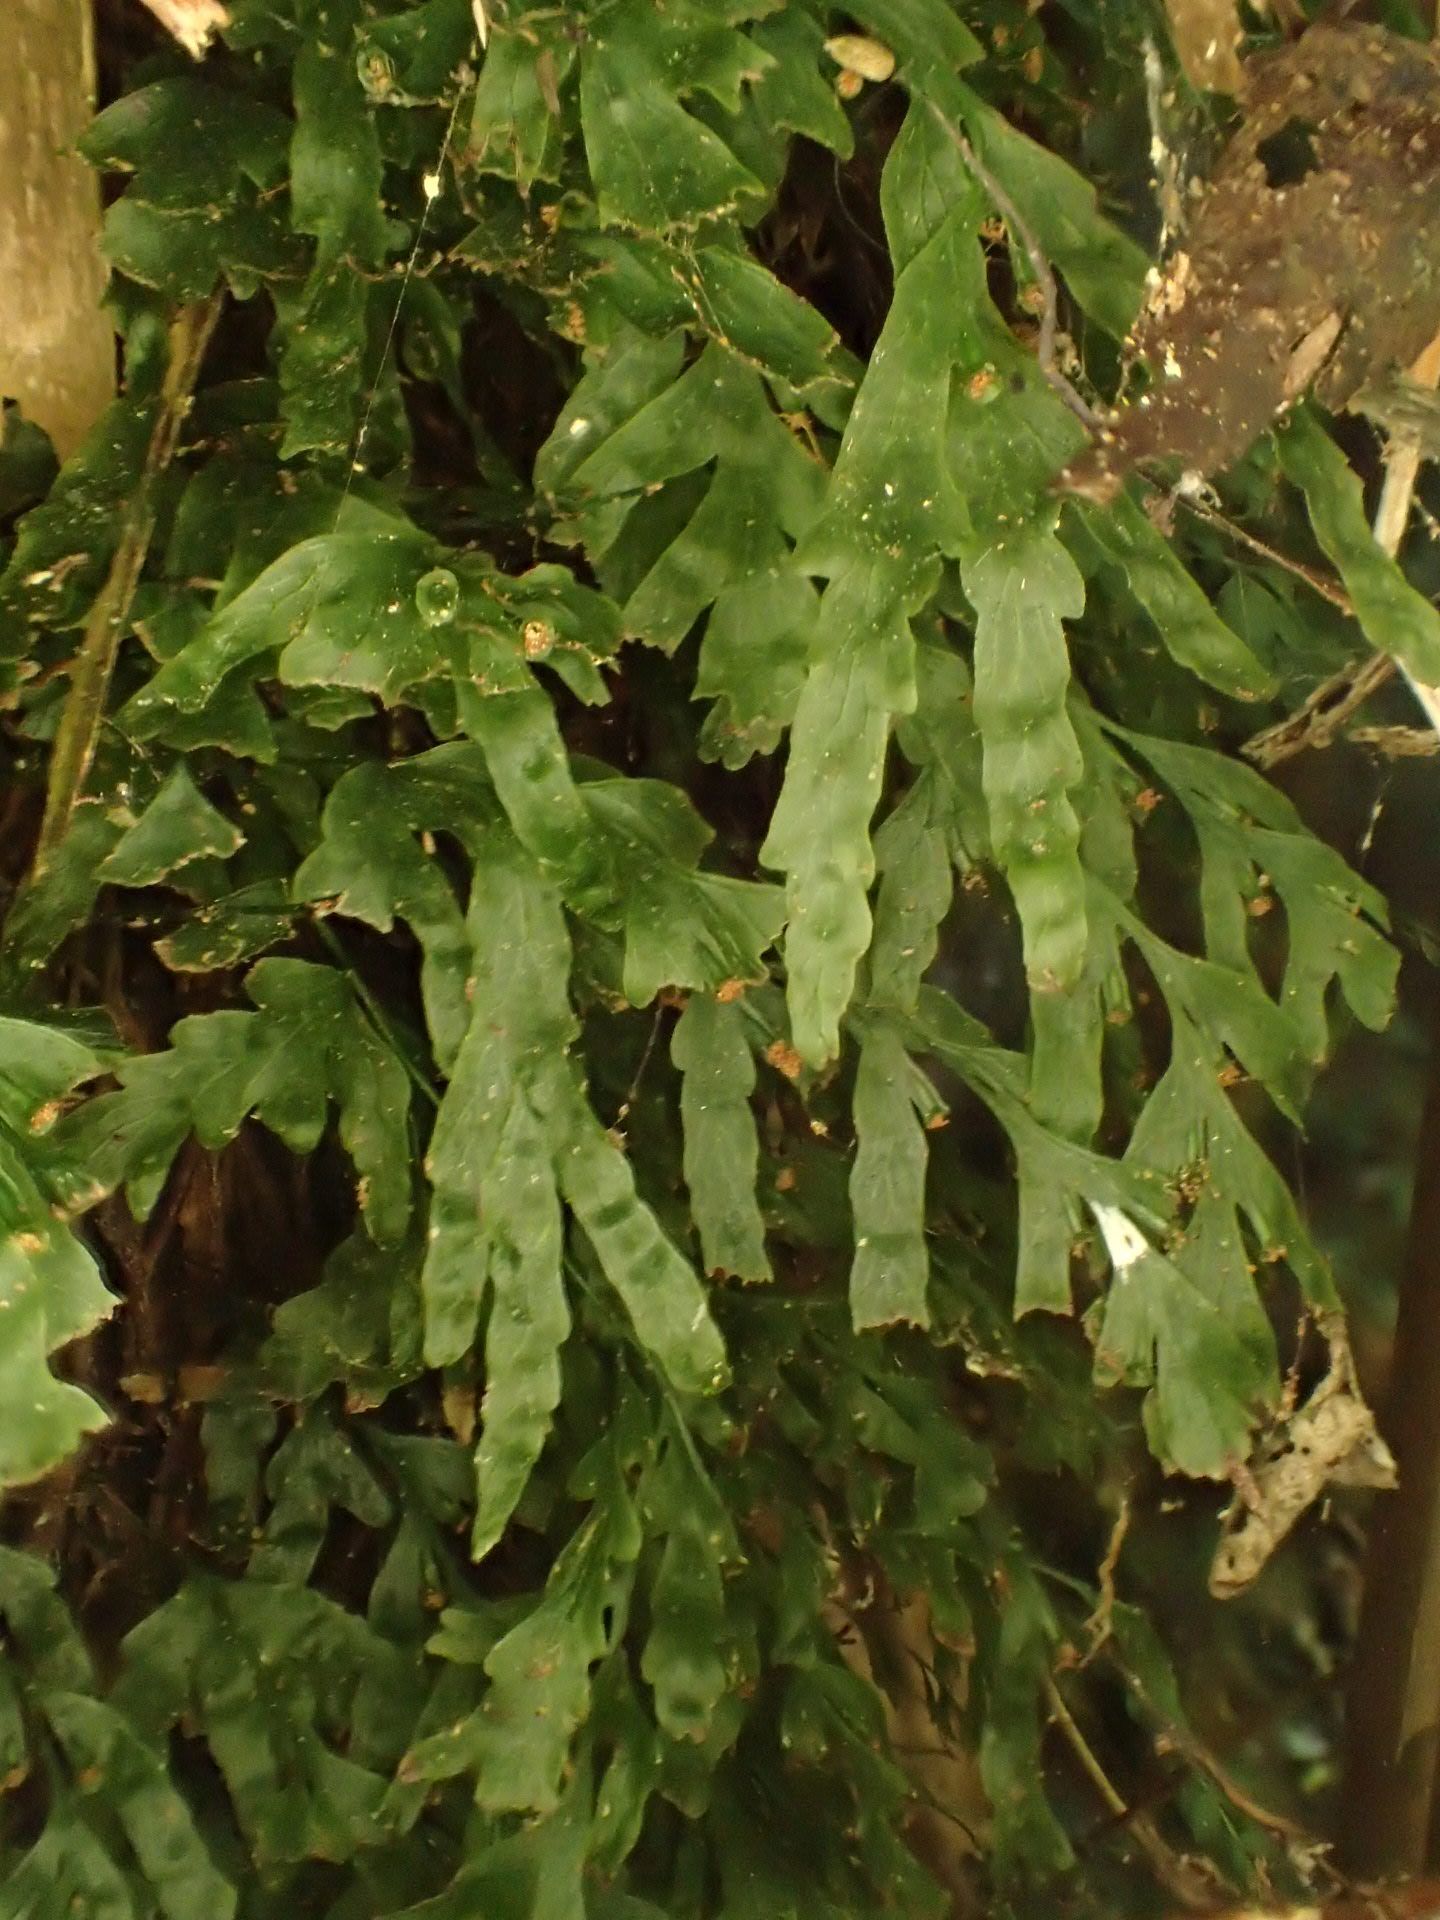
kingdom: Plantae
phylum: Tracheophyta
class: Polypodiopsida
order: Hymenophyllales
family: Hymenophyllaceae
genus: Polyphlebium
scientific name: Polyphlebium venosum
